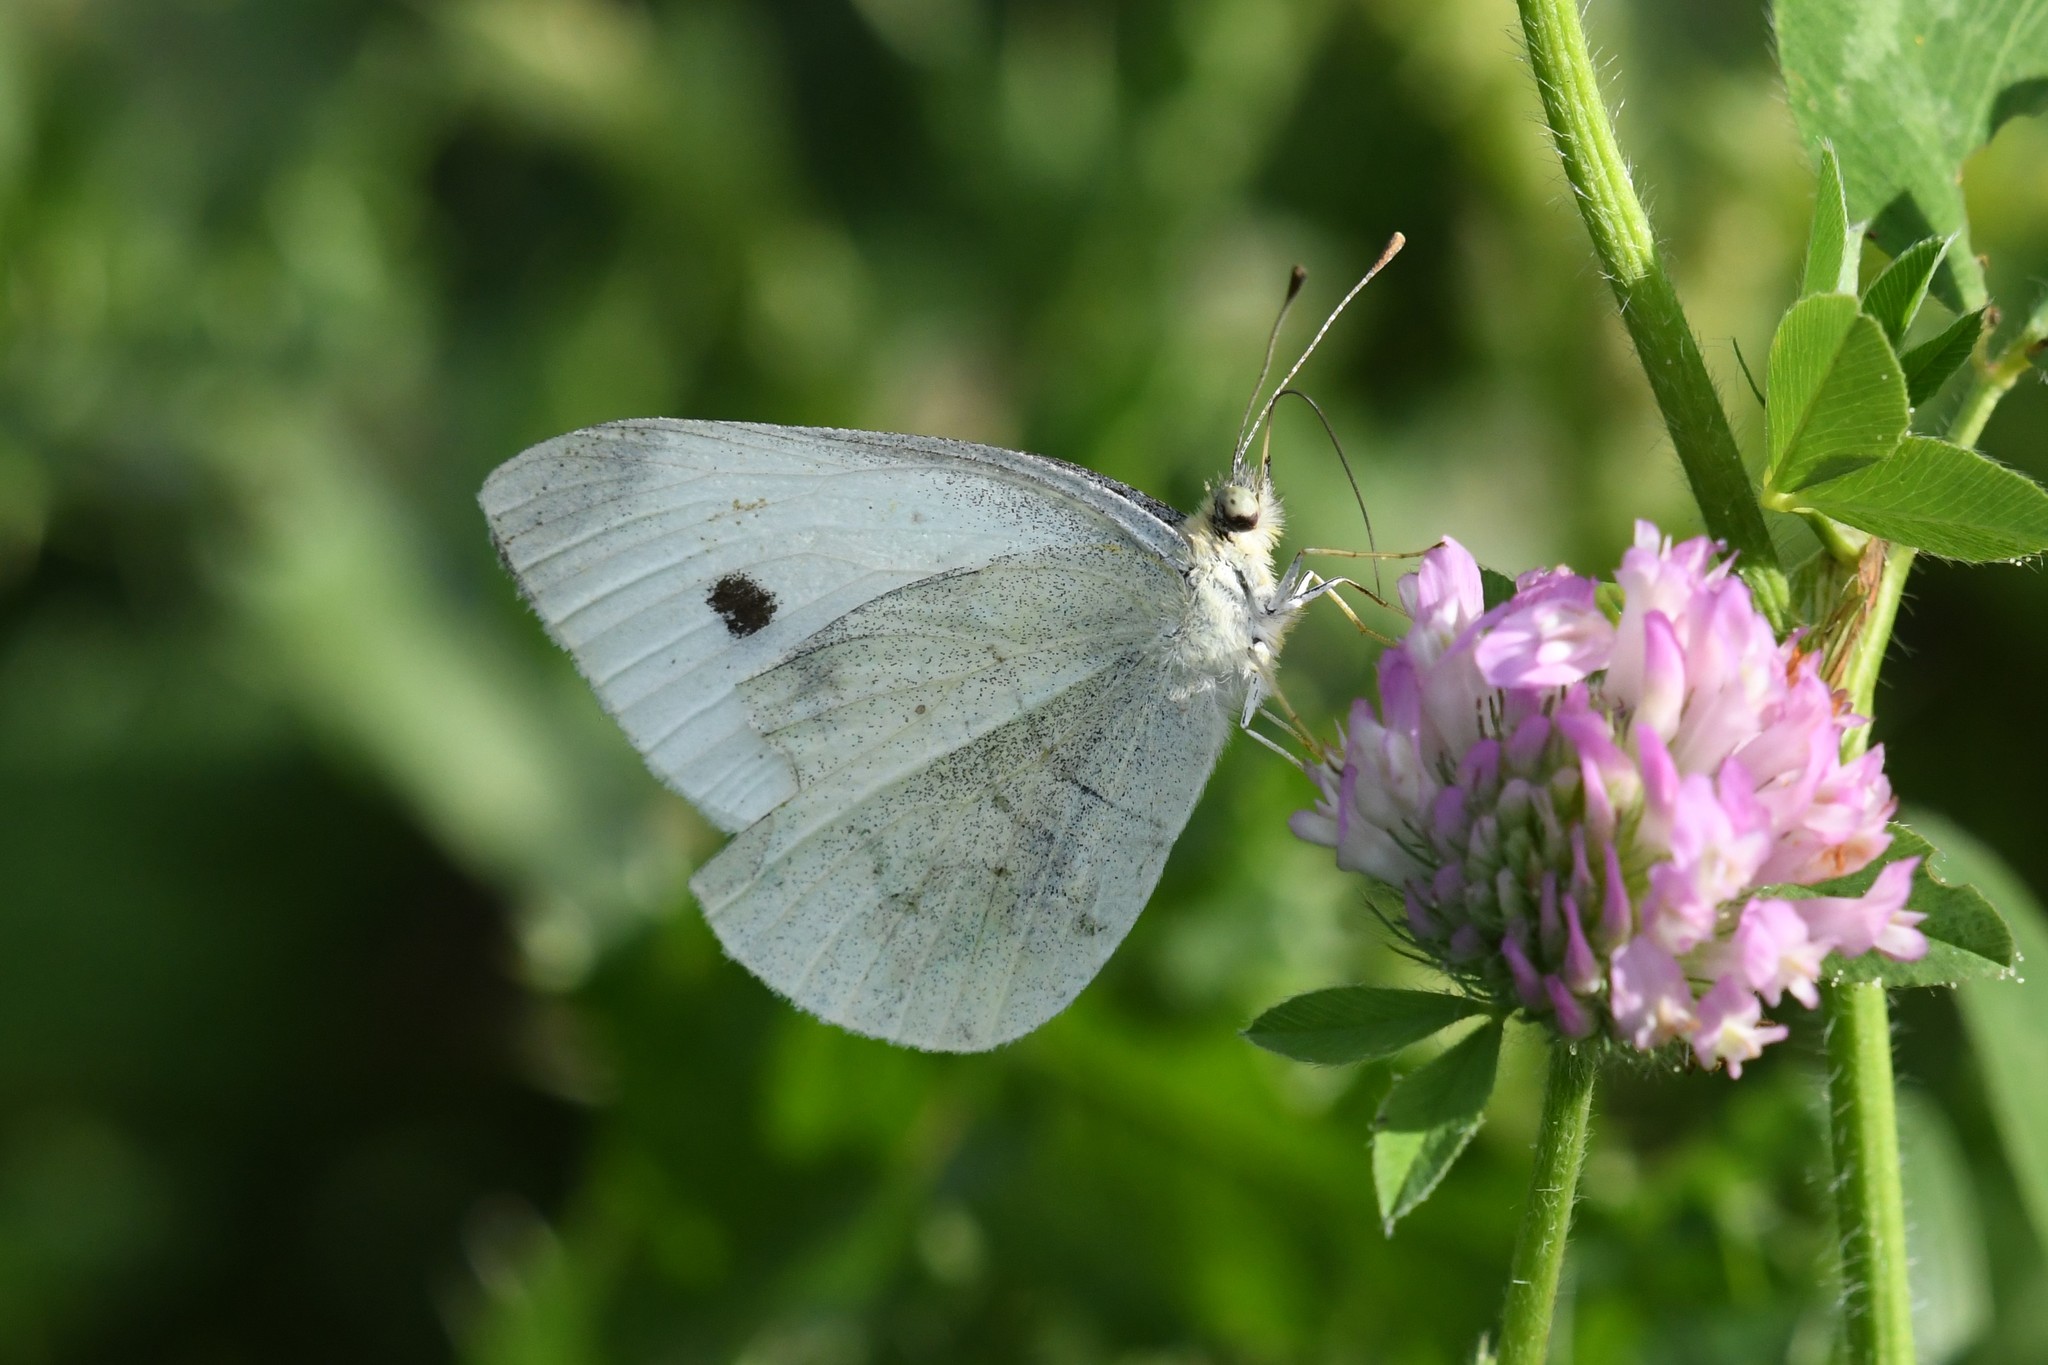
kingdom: Animalia
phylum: Arthropoda
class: Insecta
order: Lepidoptera
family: Pieridae
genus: Pieris
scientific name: Pieris rapae
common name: Small white
